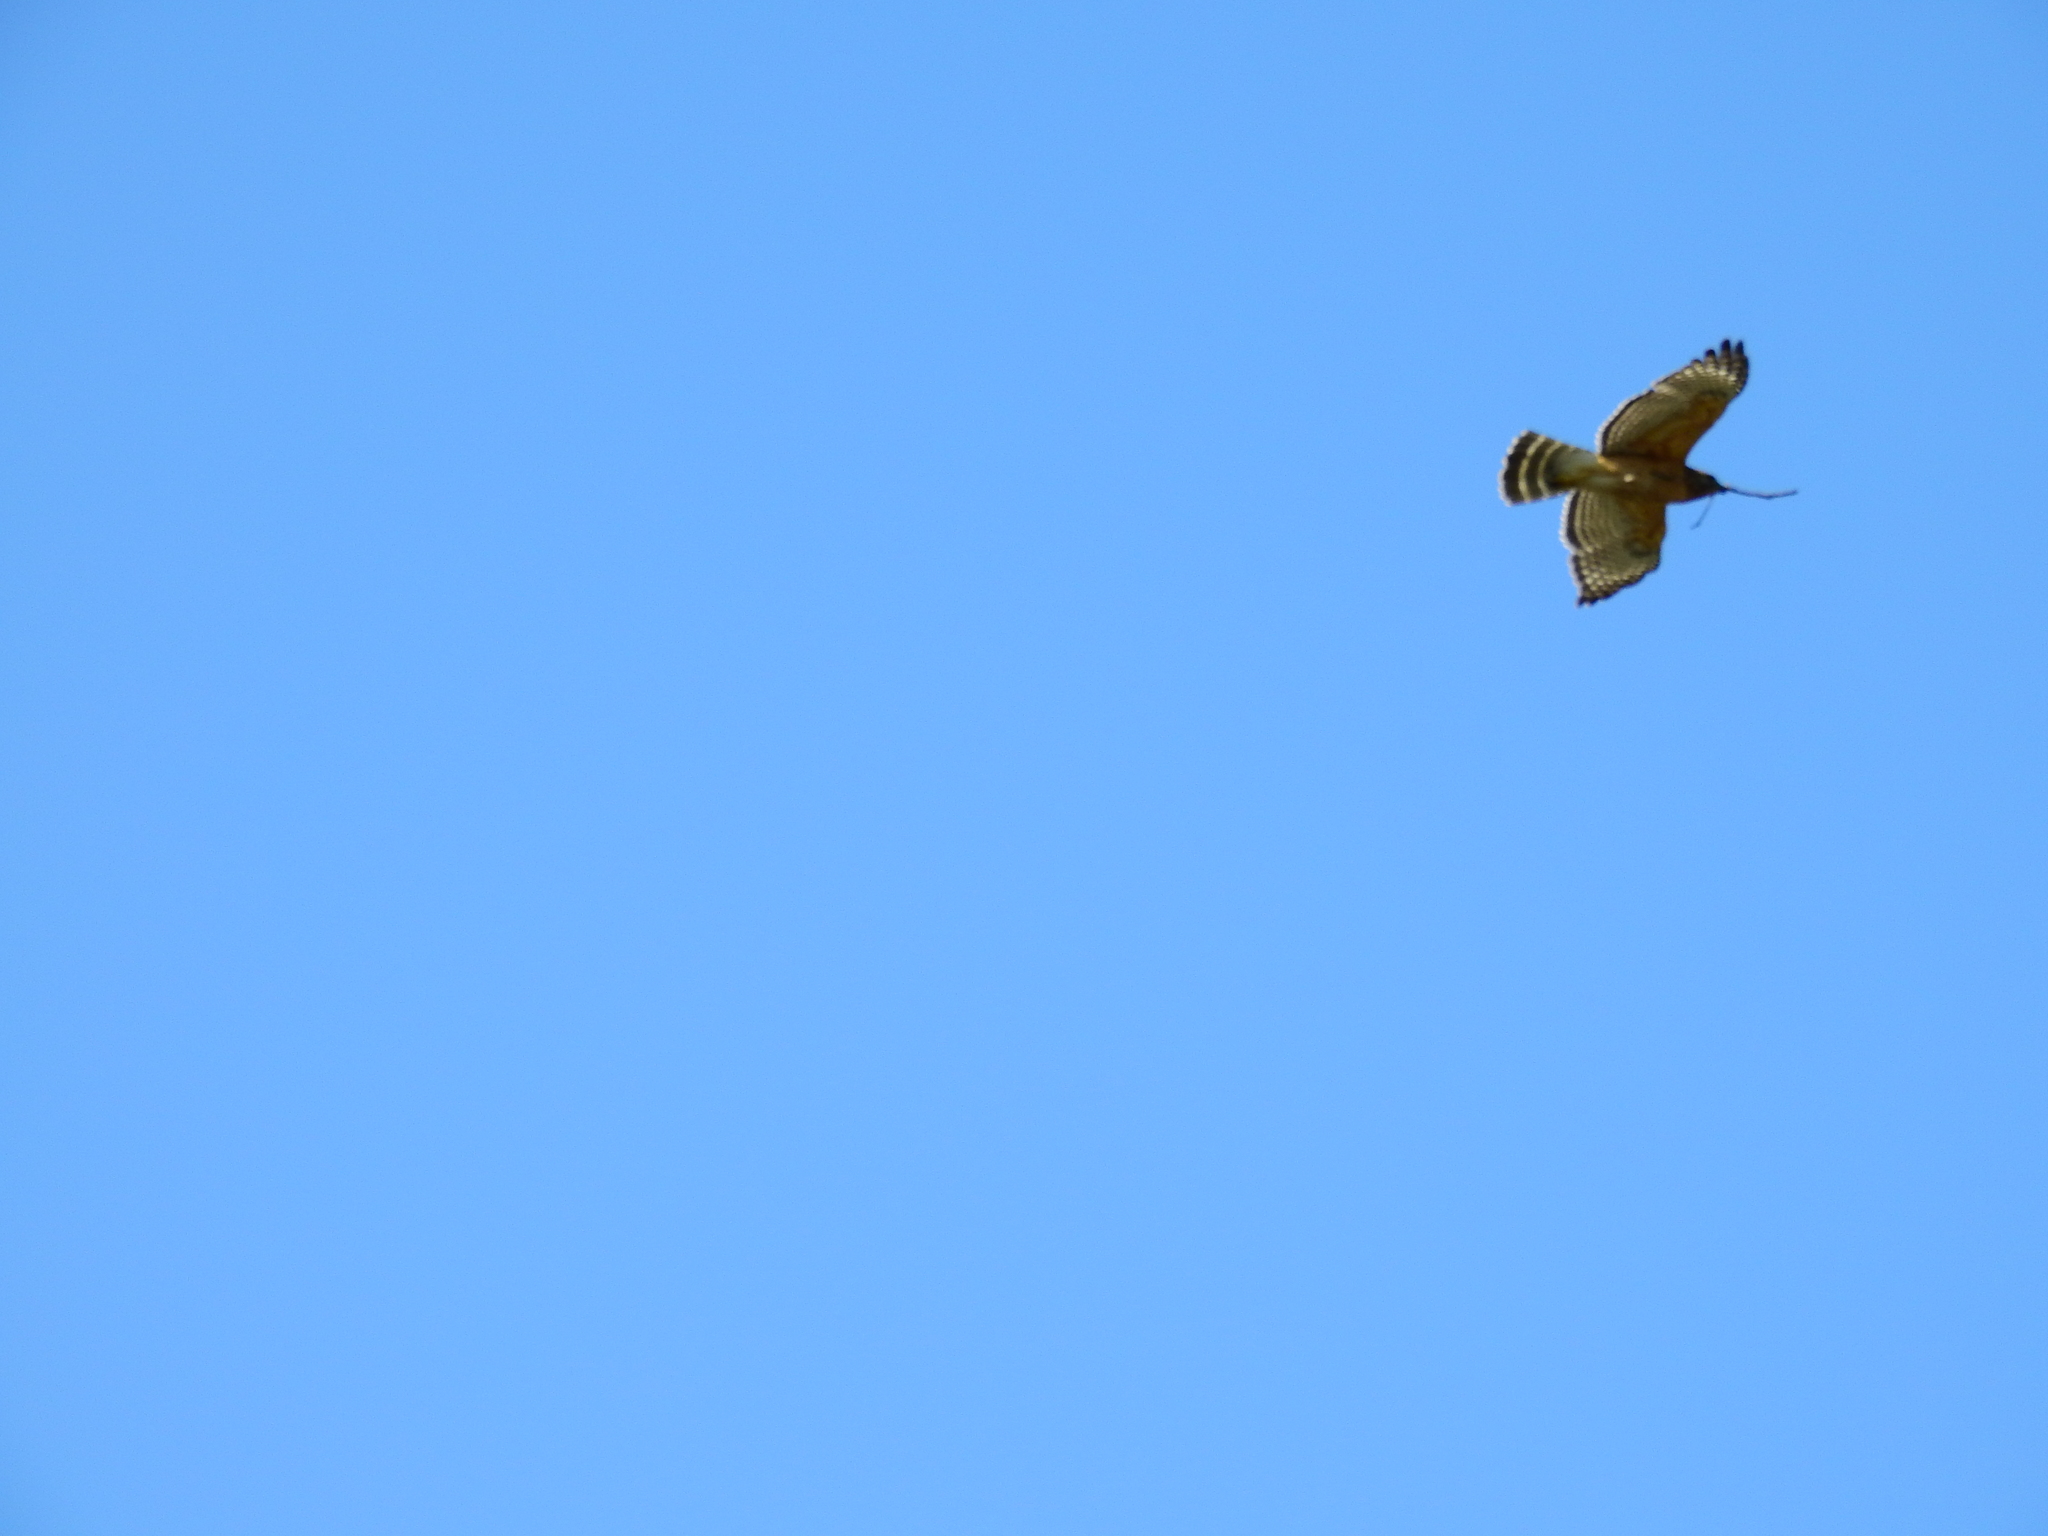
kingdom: Animalia
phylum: Chordata
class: Aves
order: Accipitriformes
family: Accipitridae
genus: Buteo
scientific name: Buteo lineatus
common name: Red-shouldered hawk
